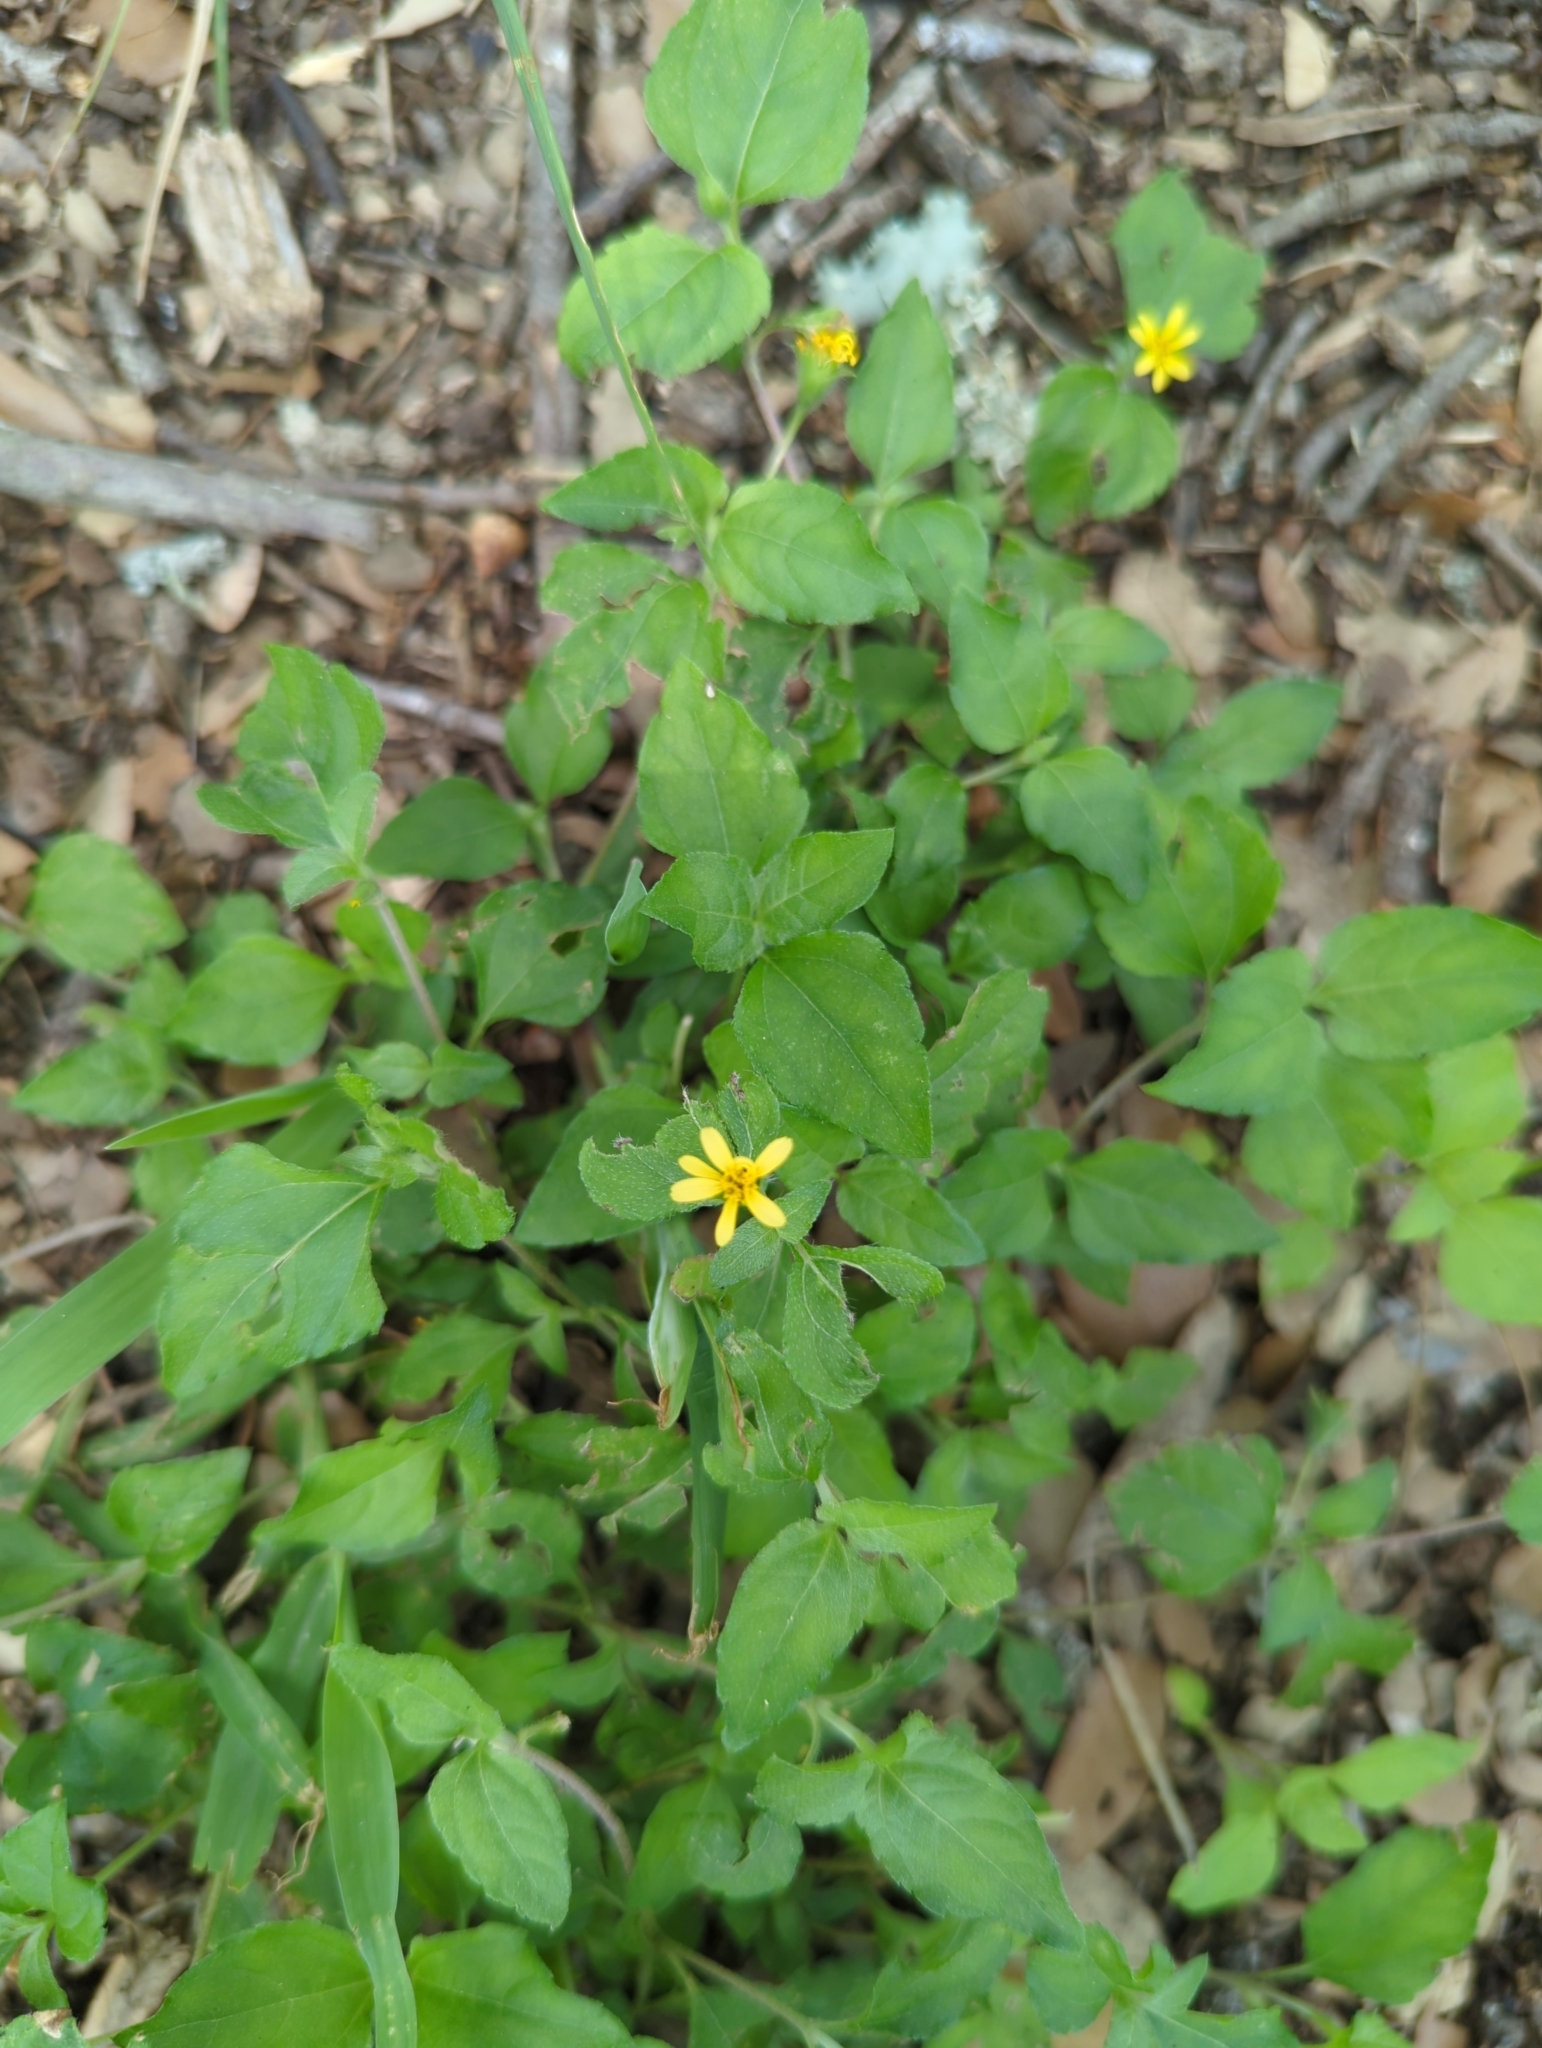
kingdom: Plantae
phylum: Tracheophyta
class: Magnoliopsida
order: Asterales
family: Asteraceae
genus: Calyptocarpus
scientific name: Calyptocarpus vialis
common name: Straggler daisy
